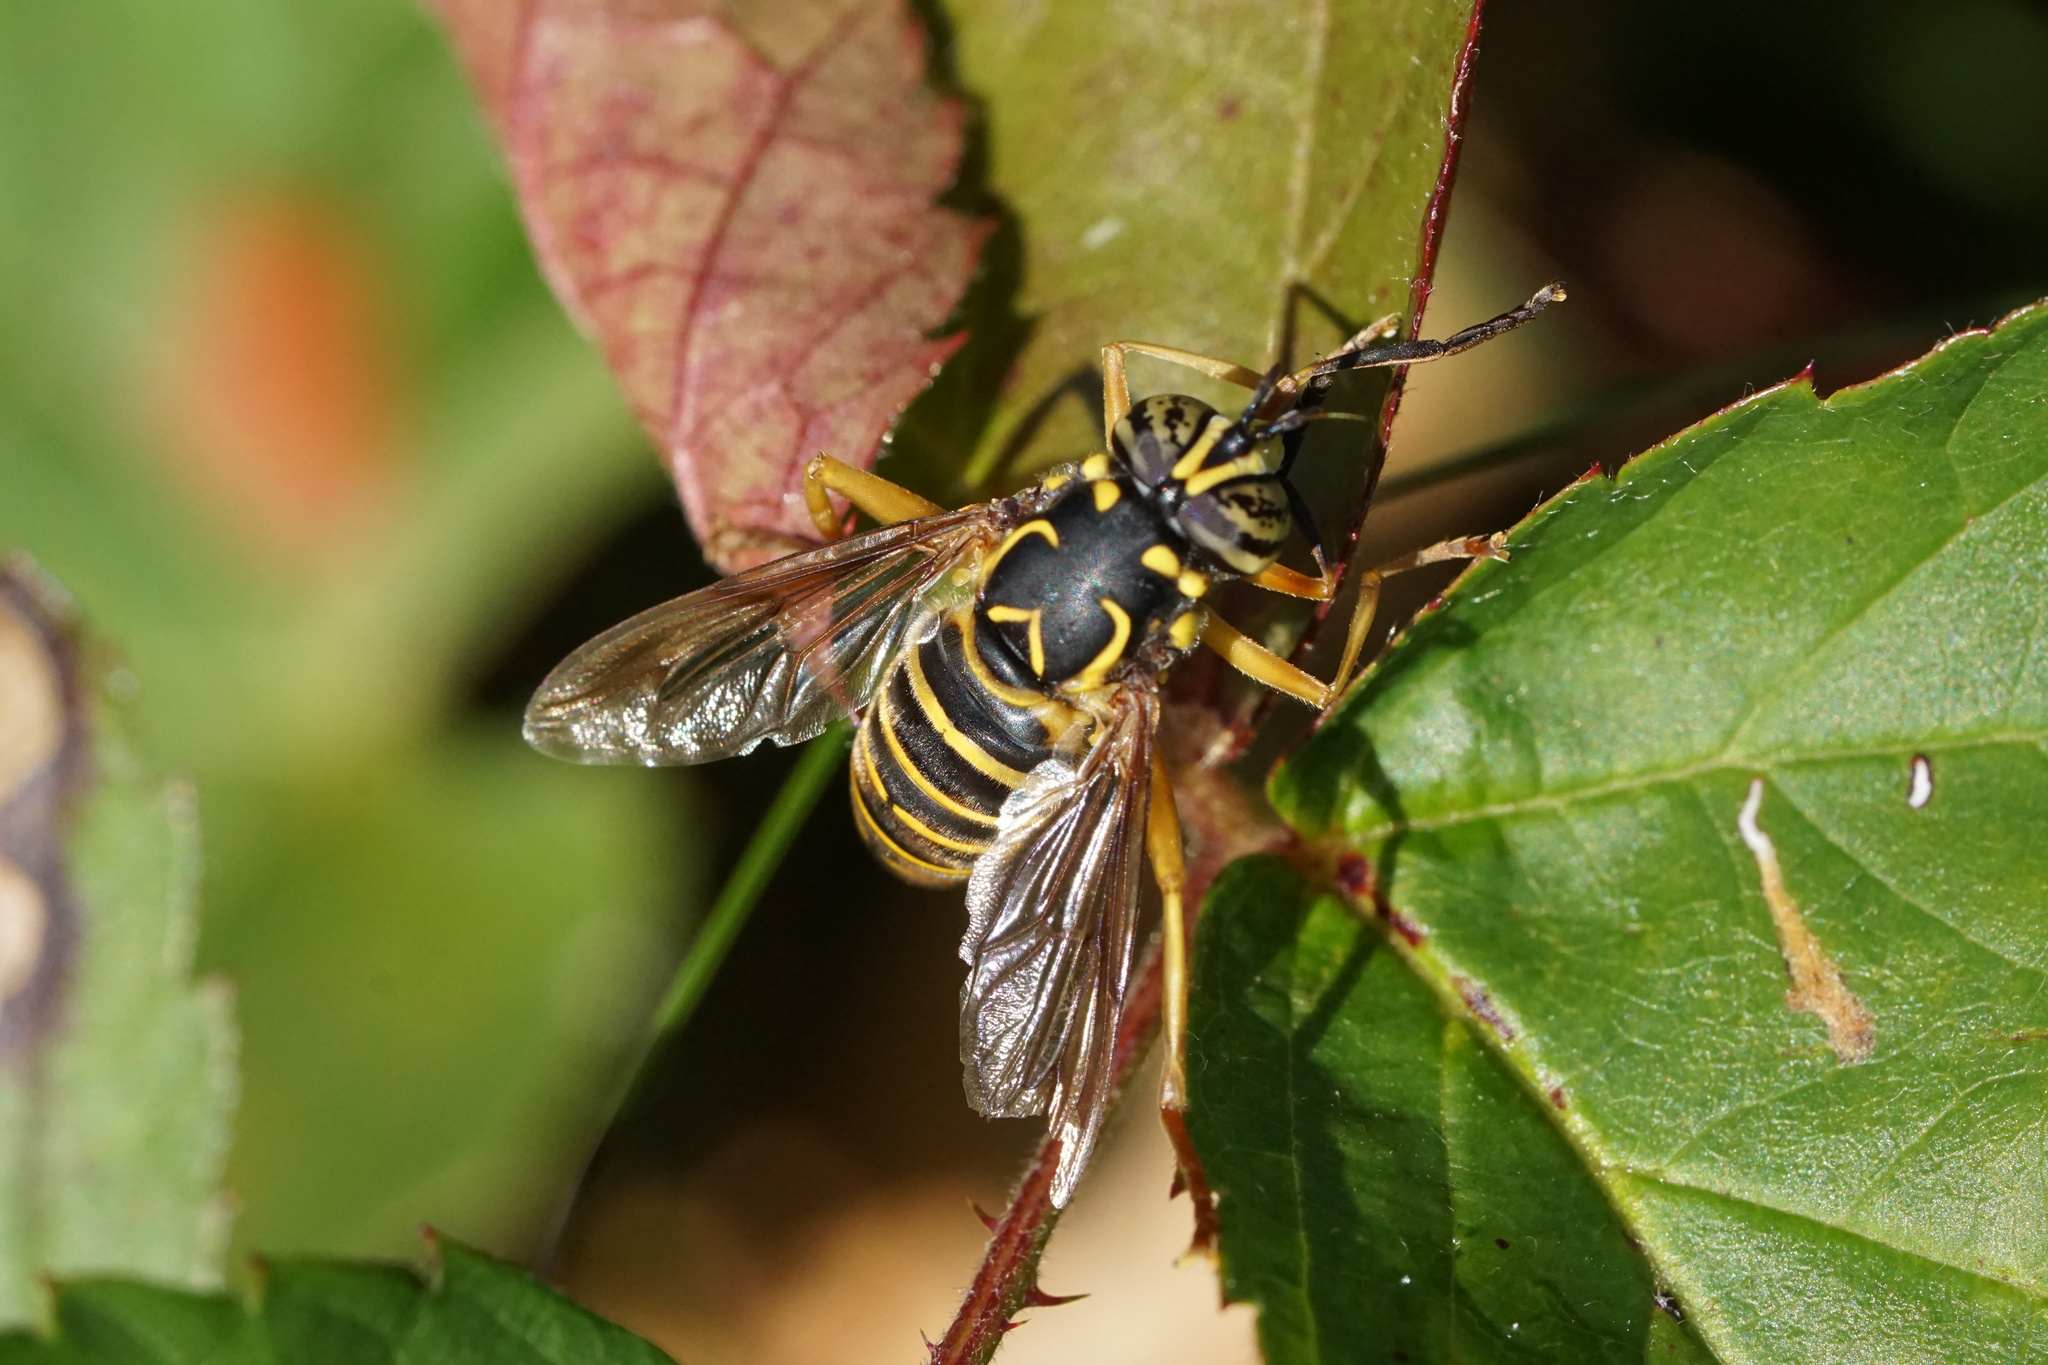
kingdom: Animalia
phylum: Arthropoda
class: Insecta
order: Diptera
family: Syrphidae
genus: Spilomyia
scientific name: Spilomyia longicornis
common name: Eastern hornet fly
